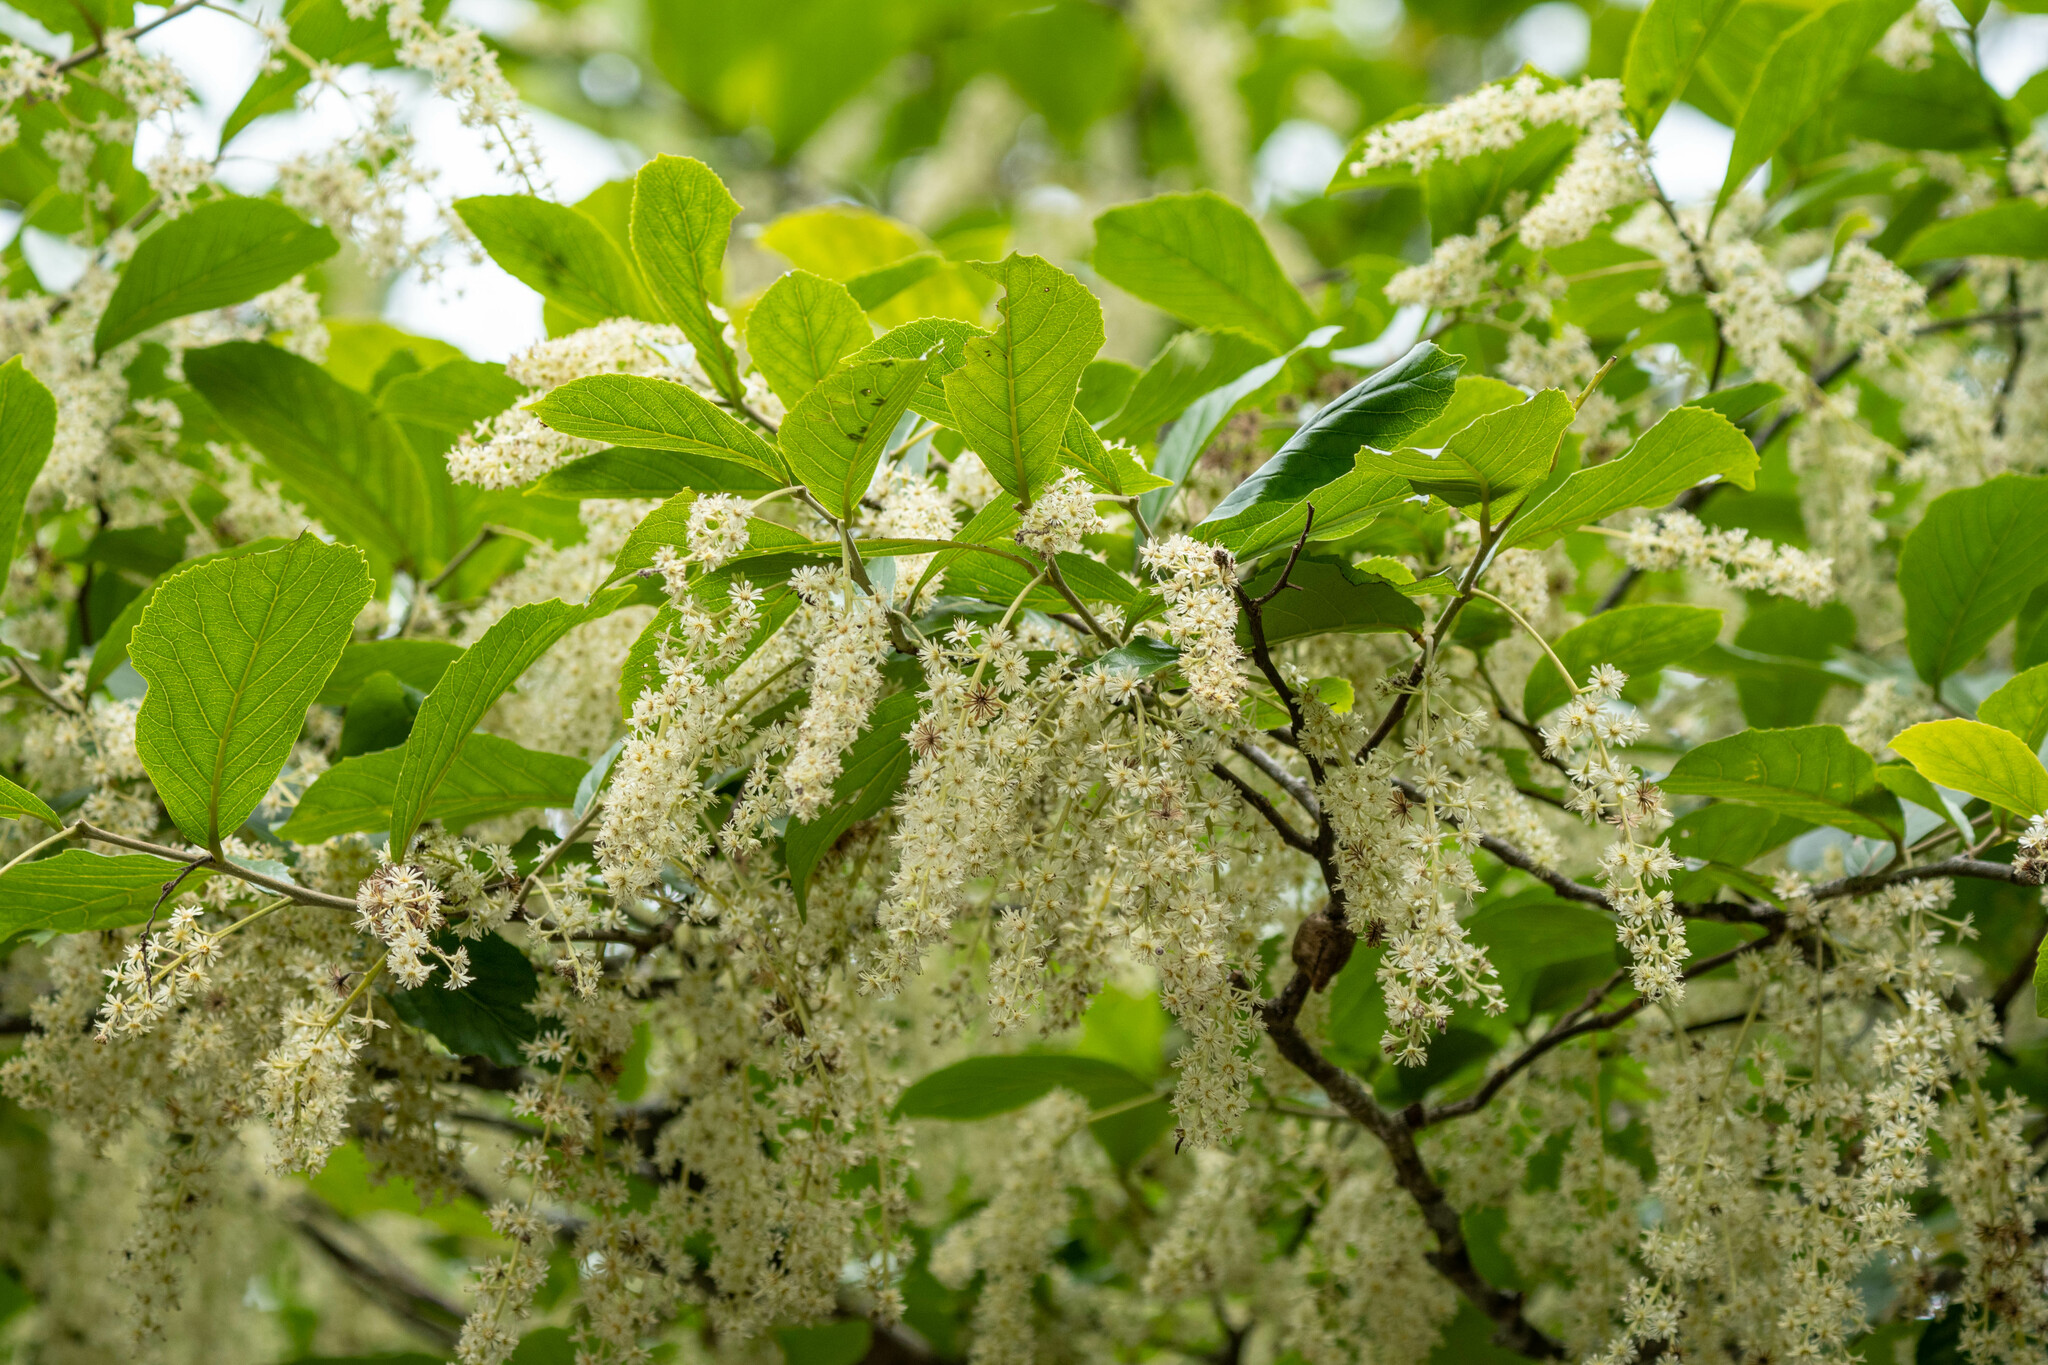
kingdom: Plantae
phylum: Tracheophyta
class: Magnoliopsida
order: Malpighiales
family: Salicaceae
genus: Homalium
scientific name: Homalium cochinchinensis
